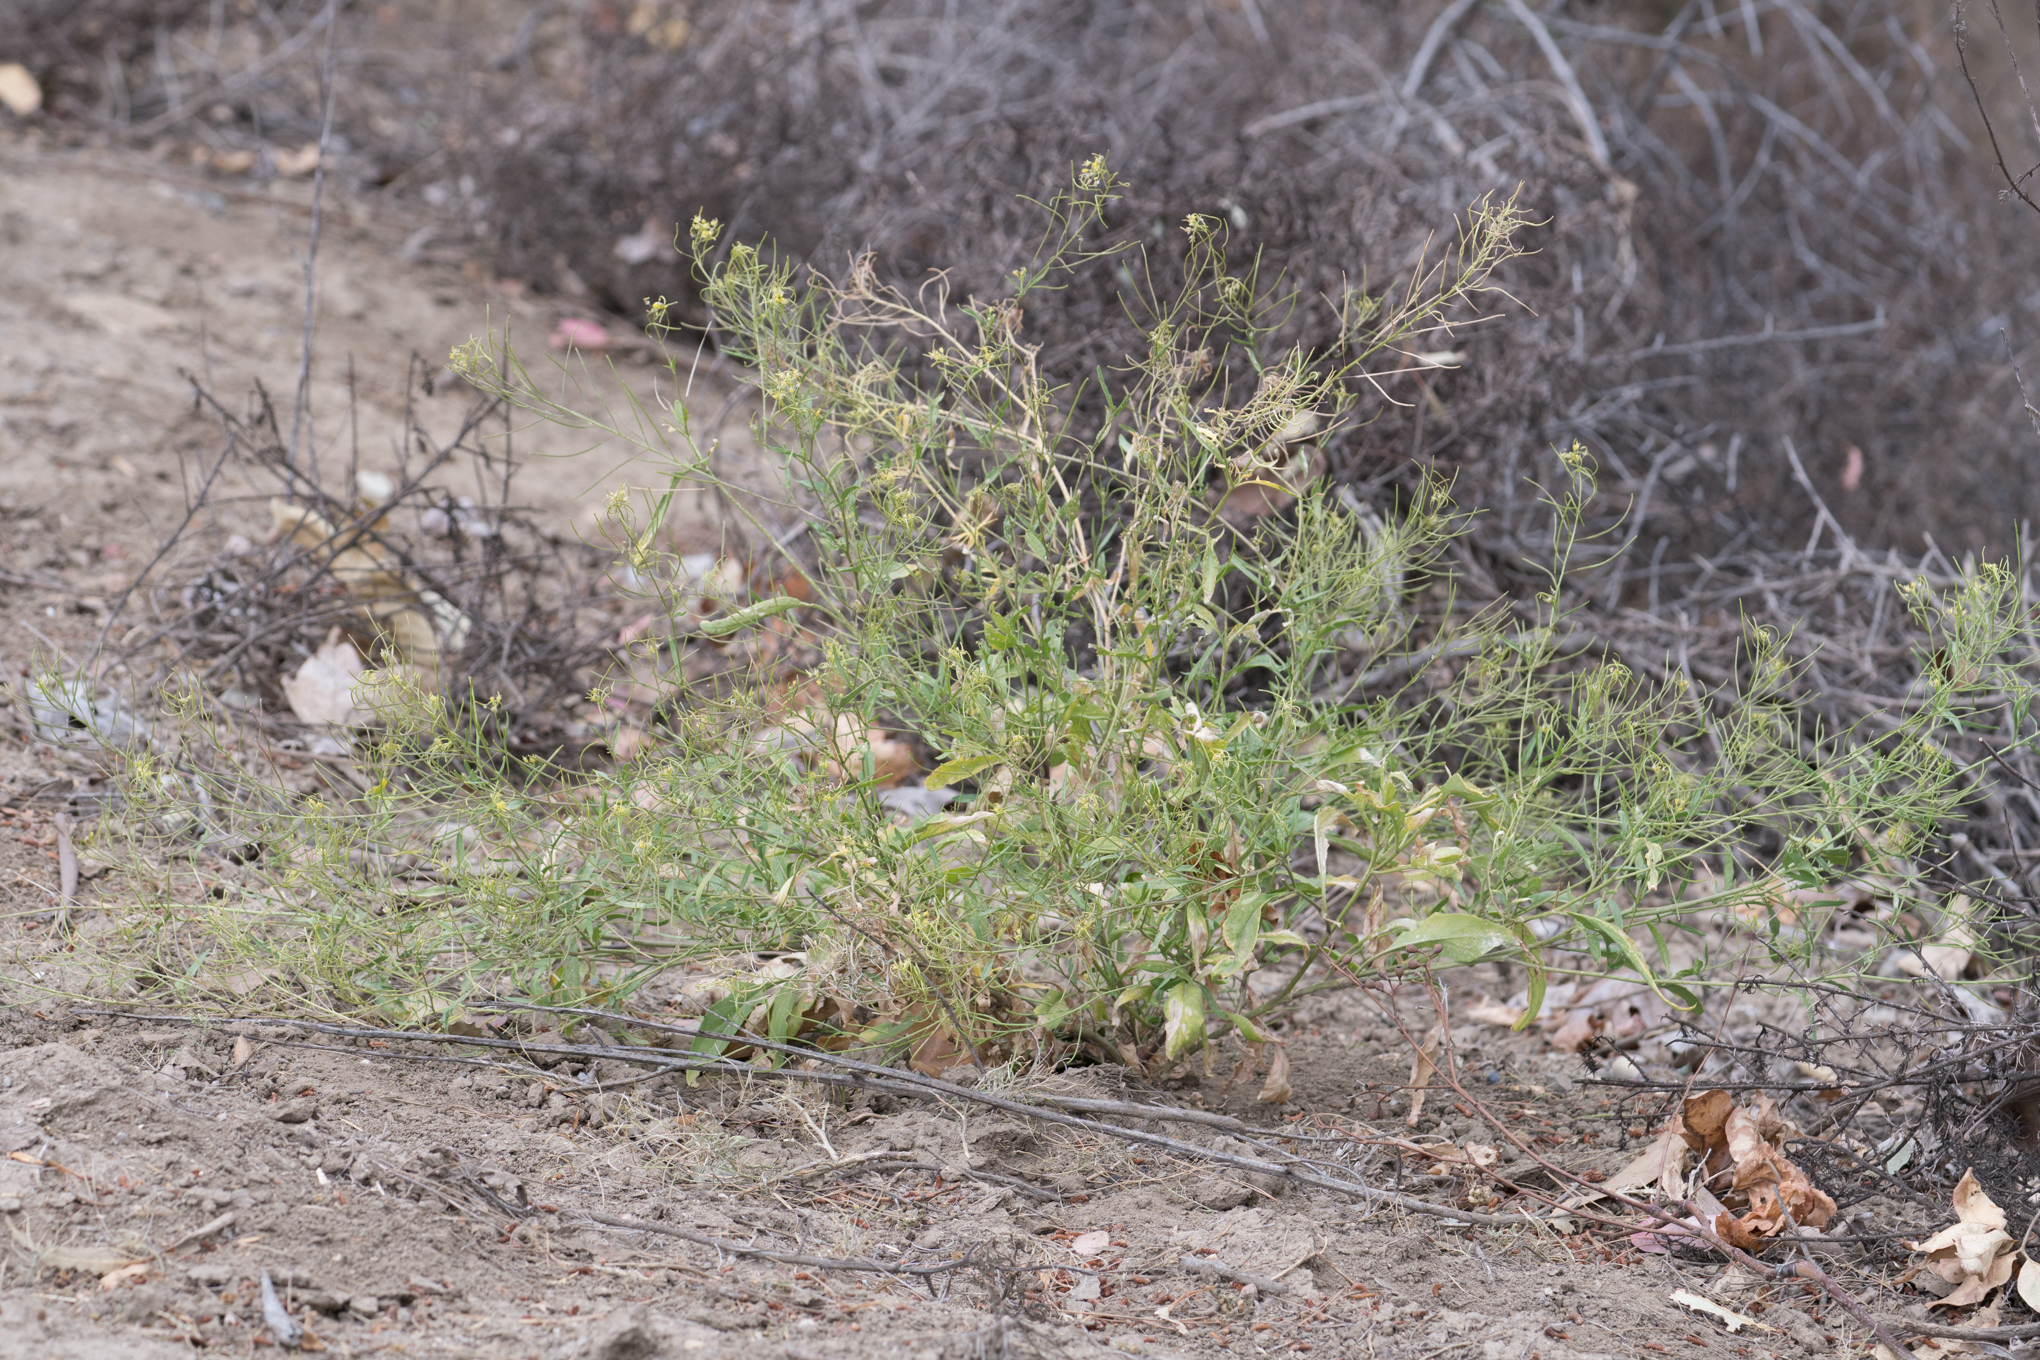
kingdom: Plantae
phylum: Tracheophyta
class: Magnoliopsida
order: Brassicales
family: Brassicaceae
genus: Sisymbrium
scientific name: Sisymbrium irio
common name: London rocket
